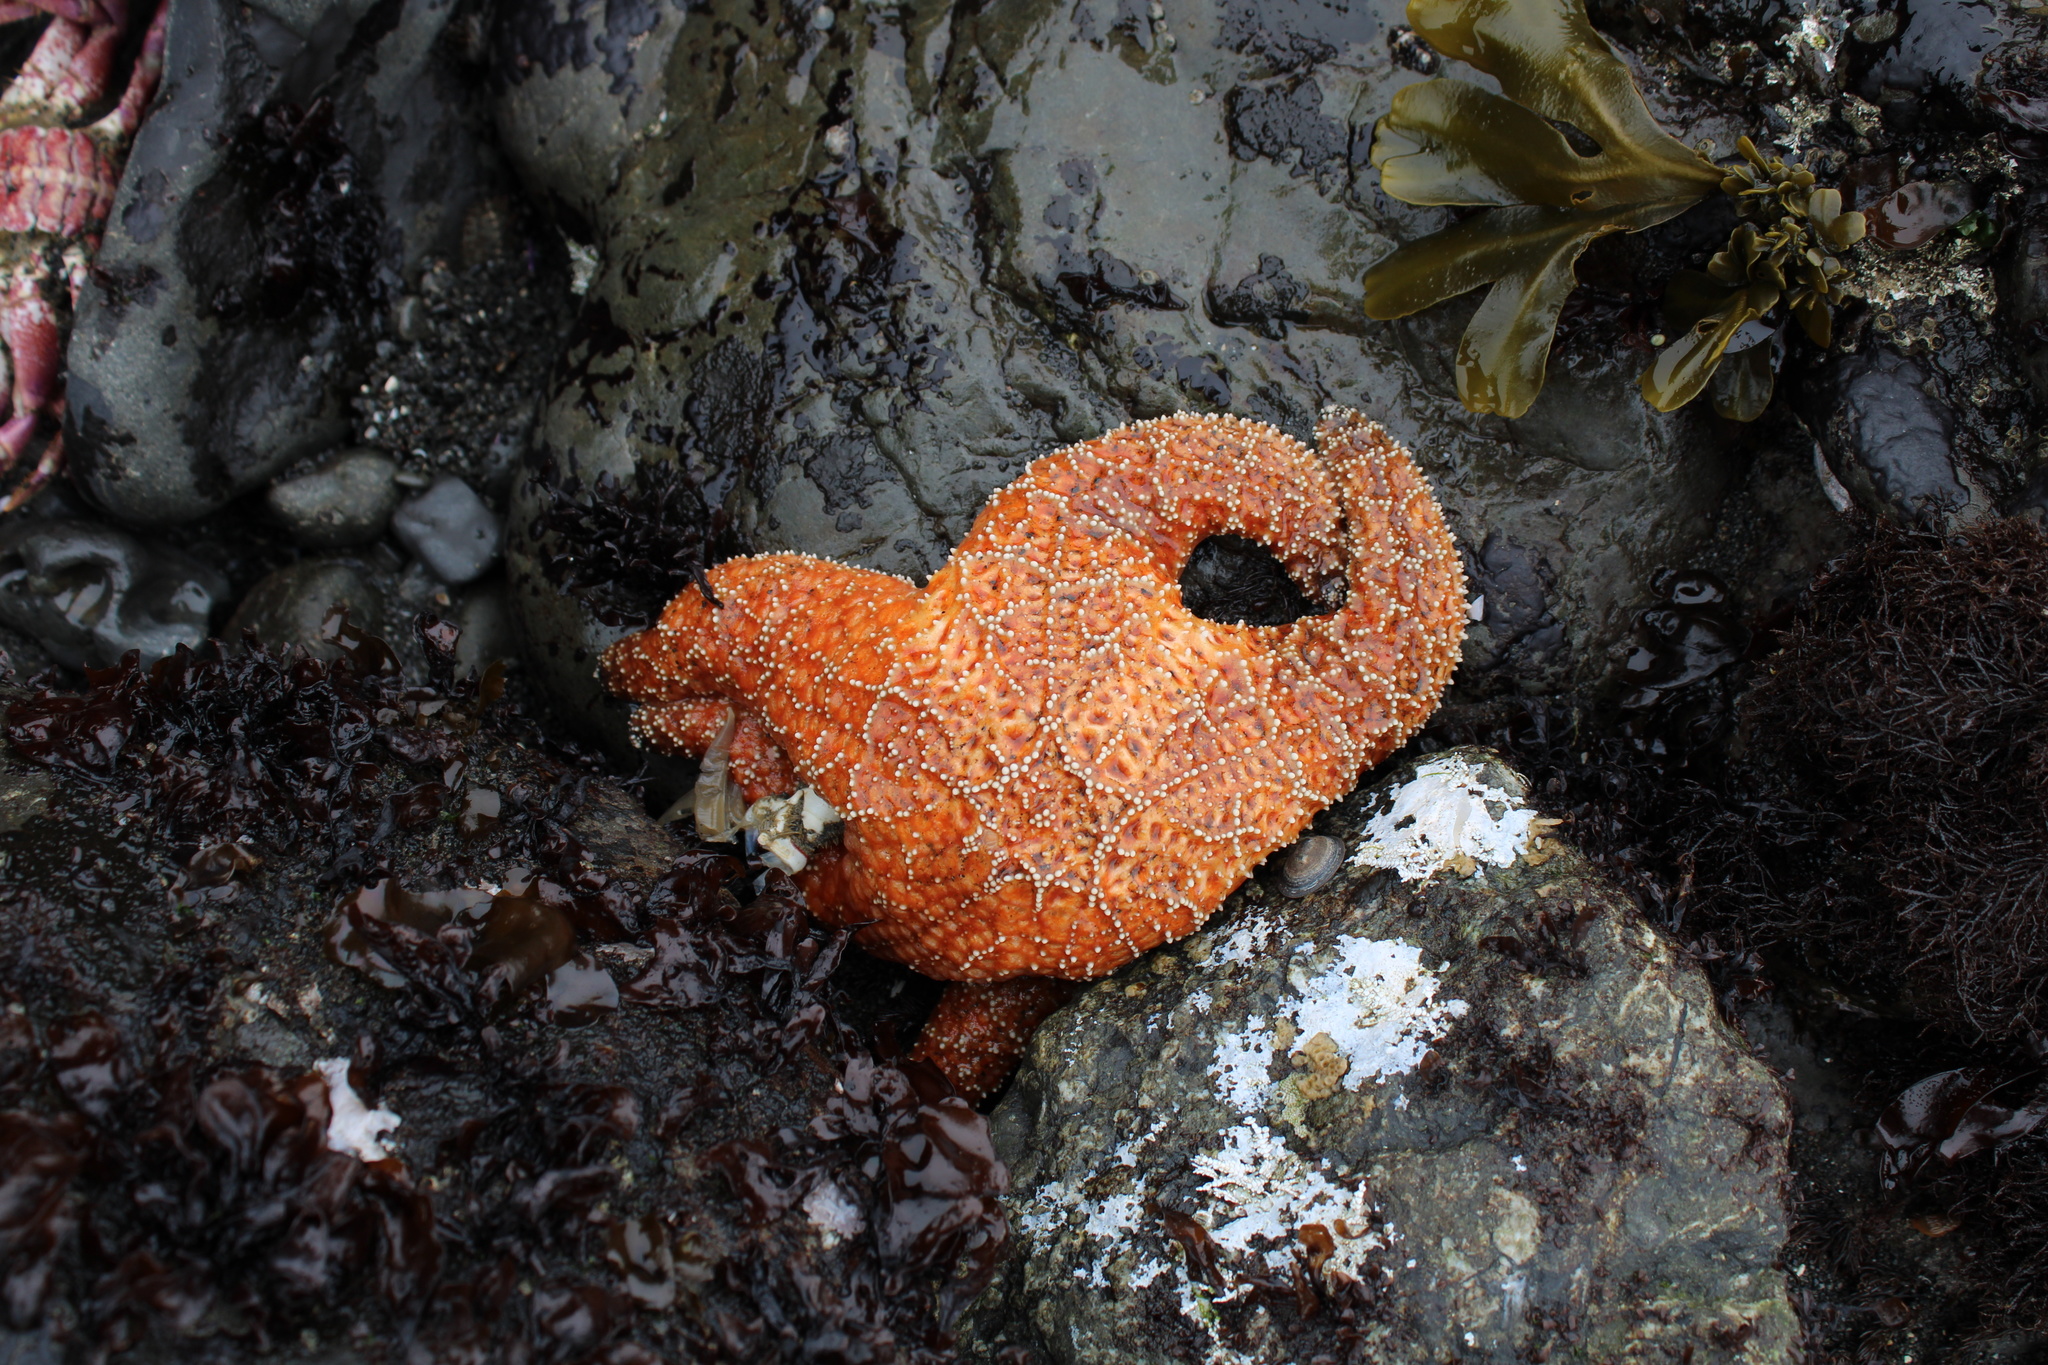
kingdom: Animalia
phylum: Echinodermata
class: Asteroidea
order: Forcipulatida
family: Asteriidae
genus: Pisaster
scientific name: Pisaster ochraceus
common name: Ochre stars
